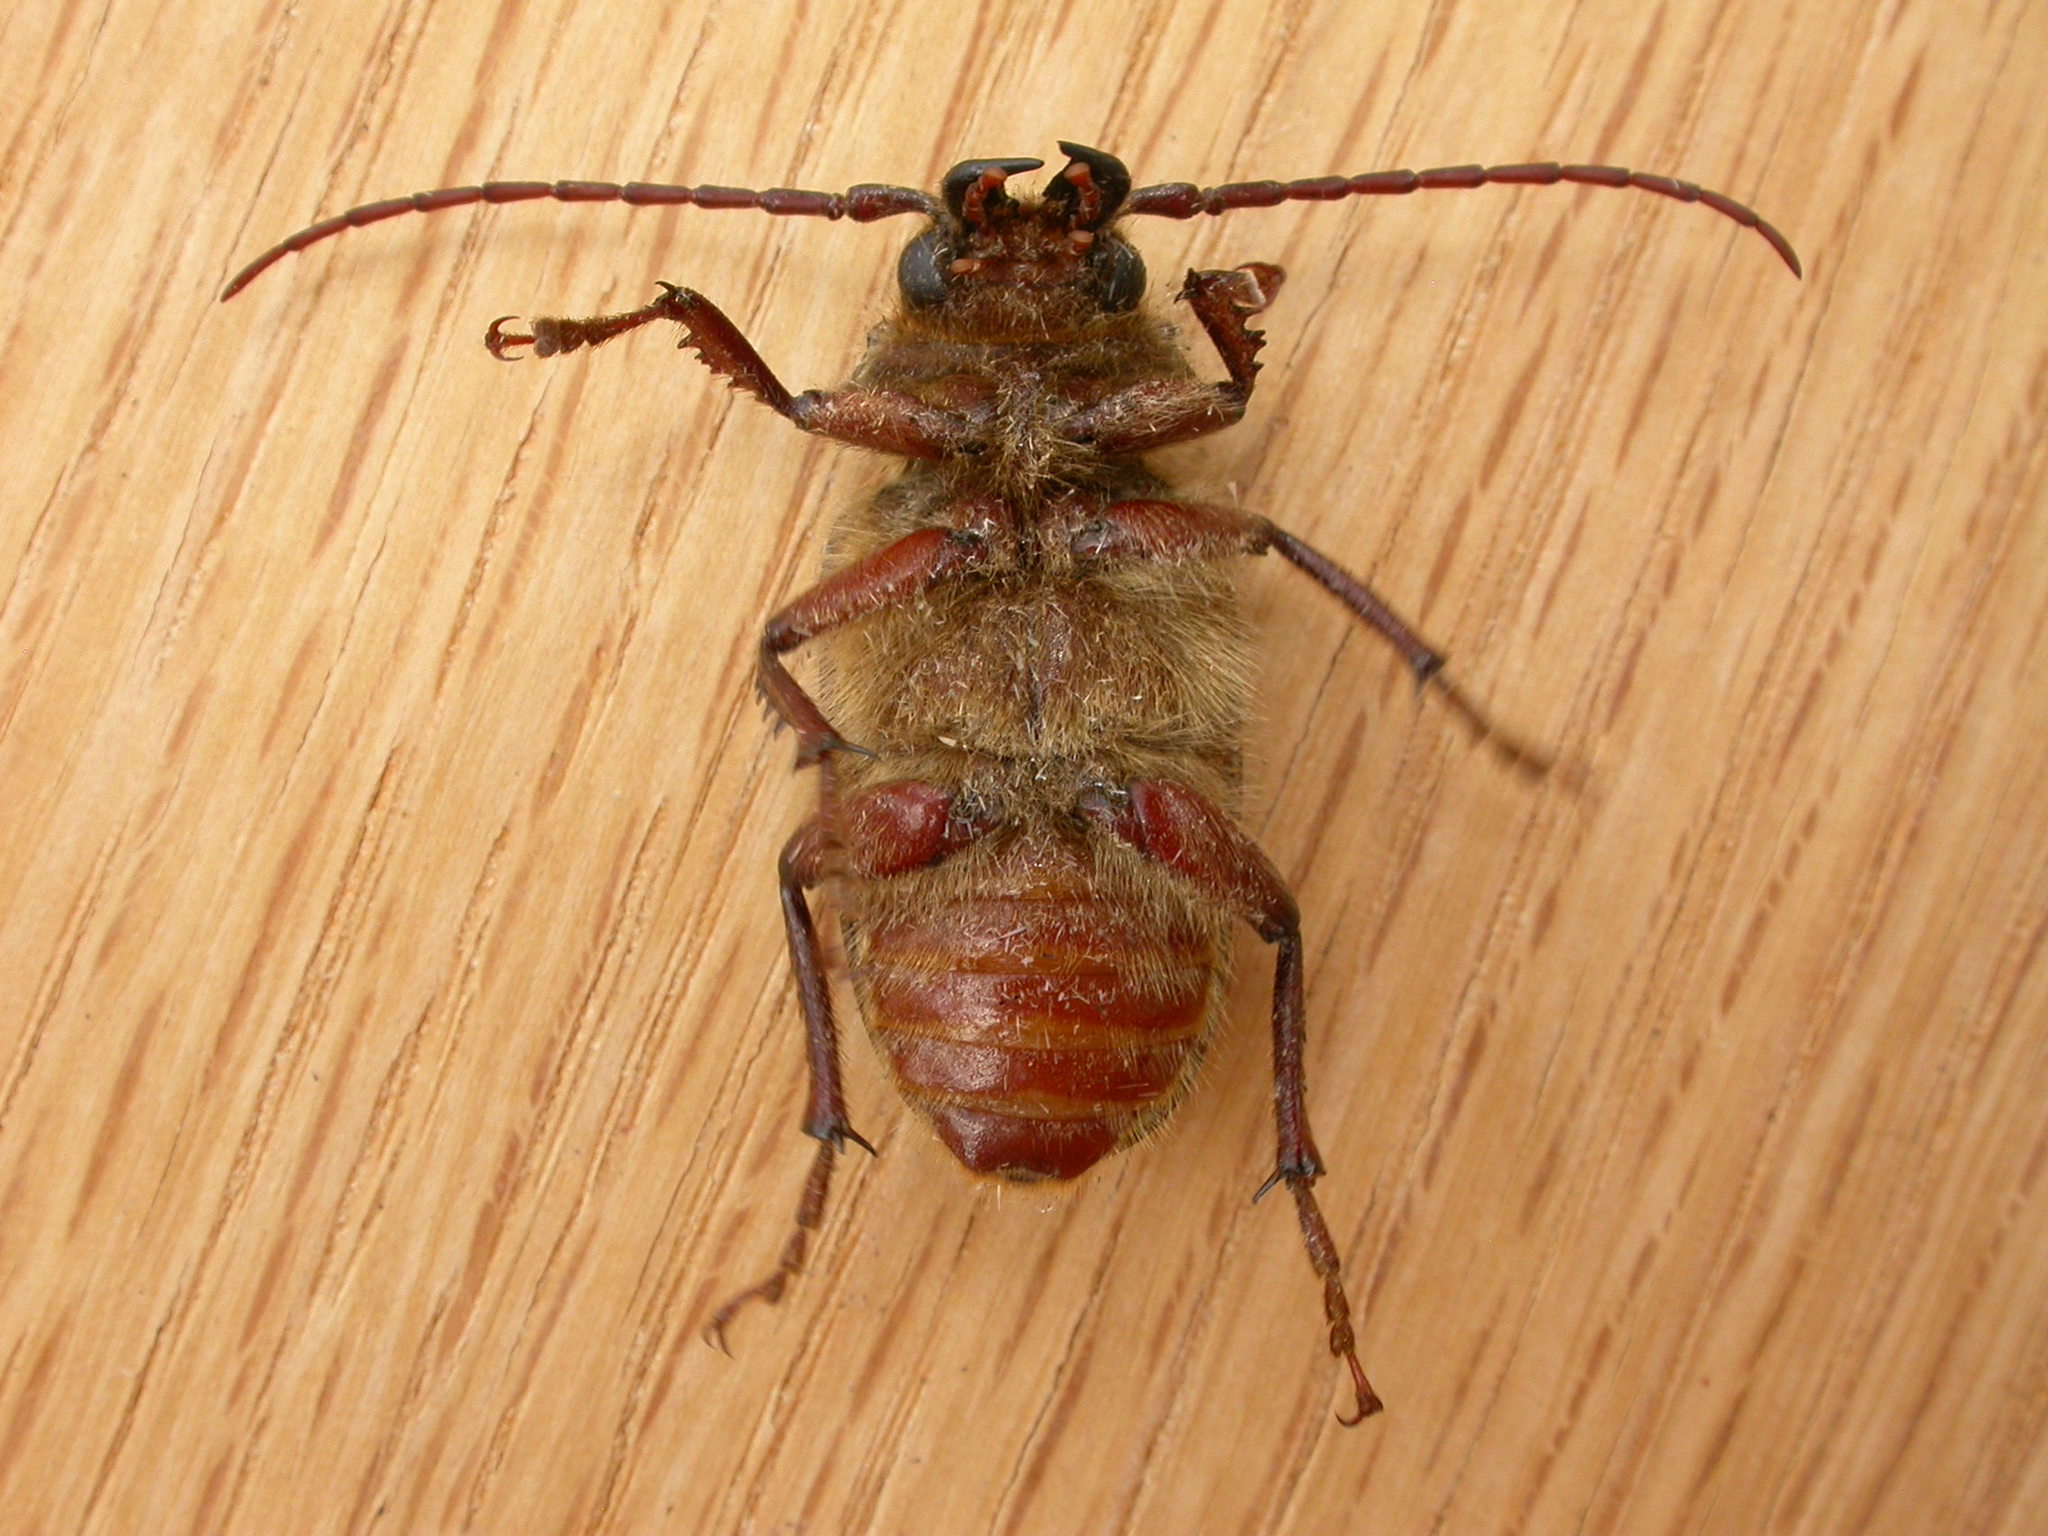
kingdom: Animalia
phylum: Arthropoda
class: Insecta
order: Coleoptera
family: Cerambycidae
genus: Sceleocantha
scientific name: Sceleocantha glabricollis
